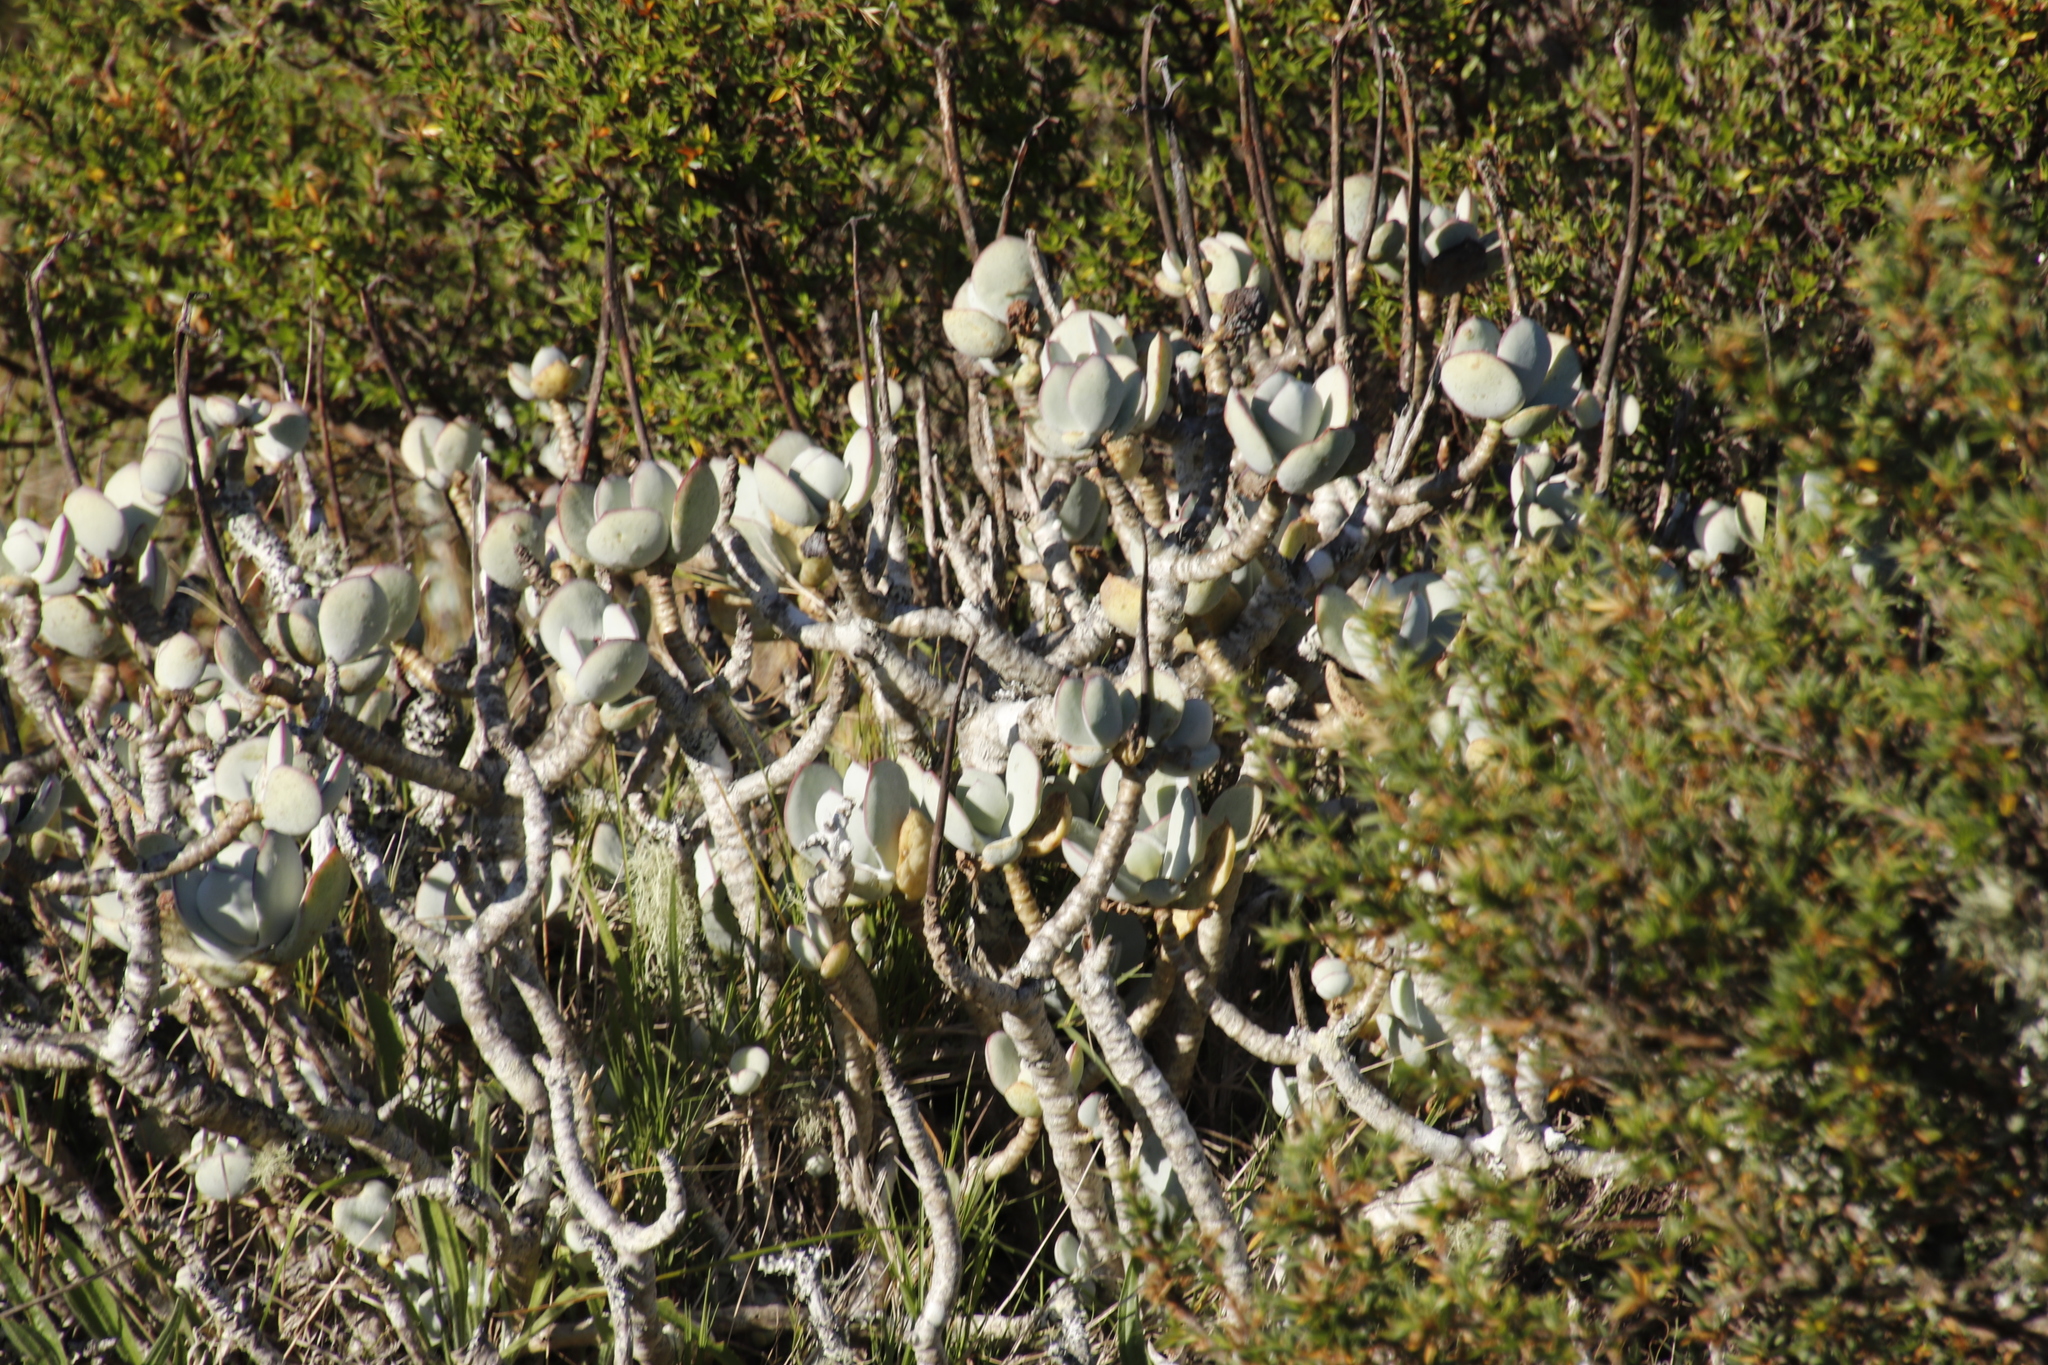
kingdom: Plantae
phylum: Tracheophyta
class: Magnoliopsida
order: Saxifragales
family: Crassulaceae
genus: Cotyledon
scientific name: Cotyledon orbiculata
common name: Pig's ear
